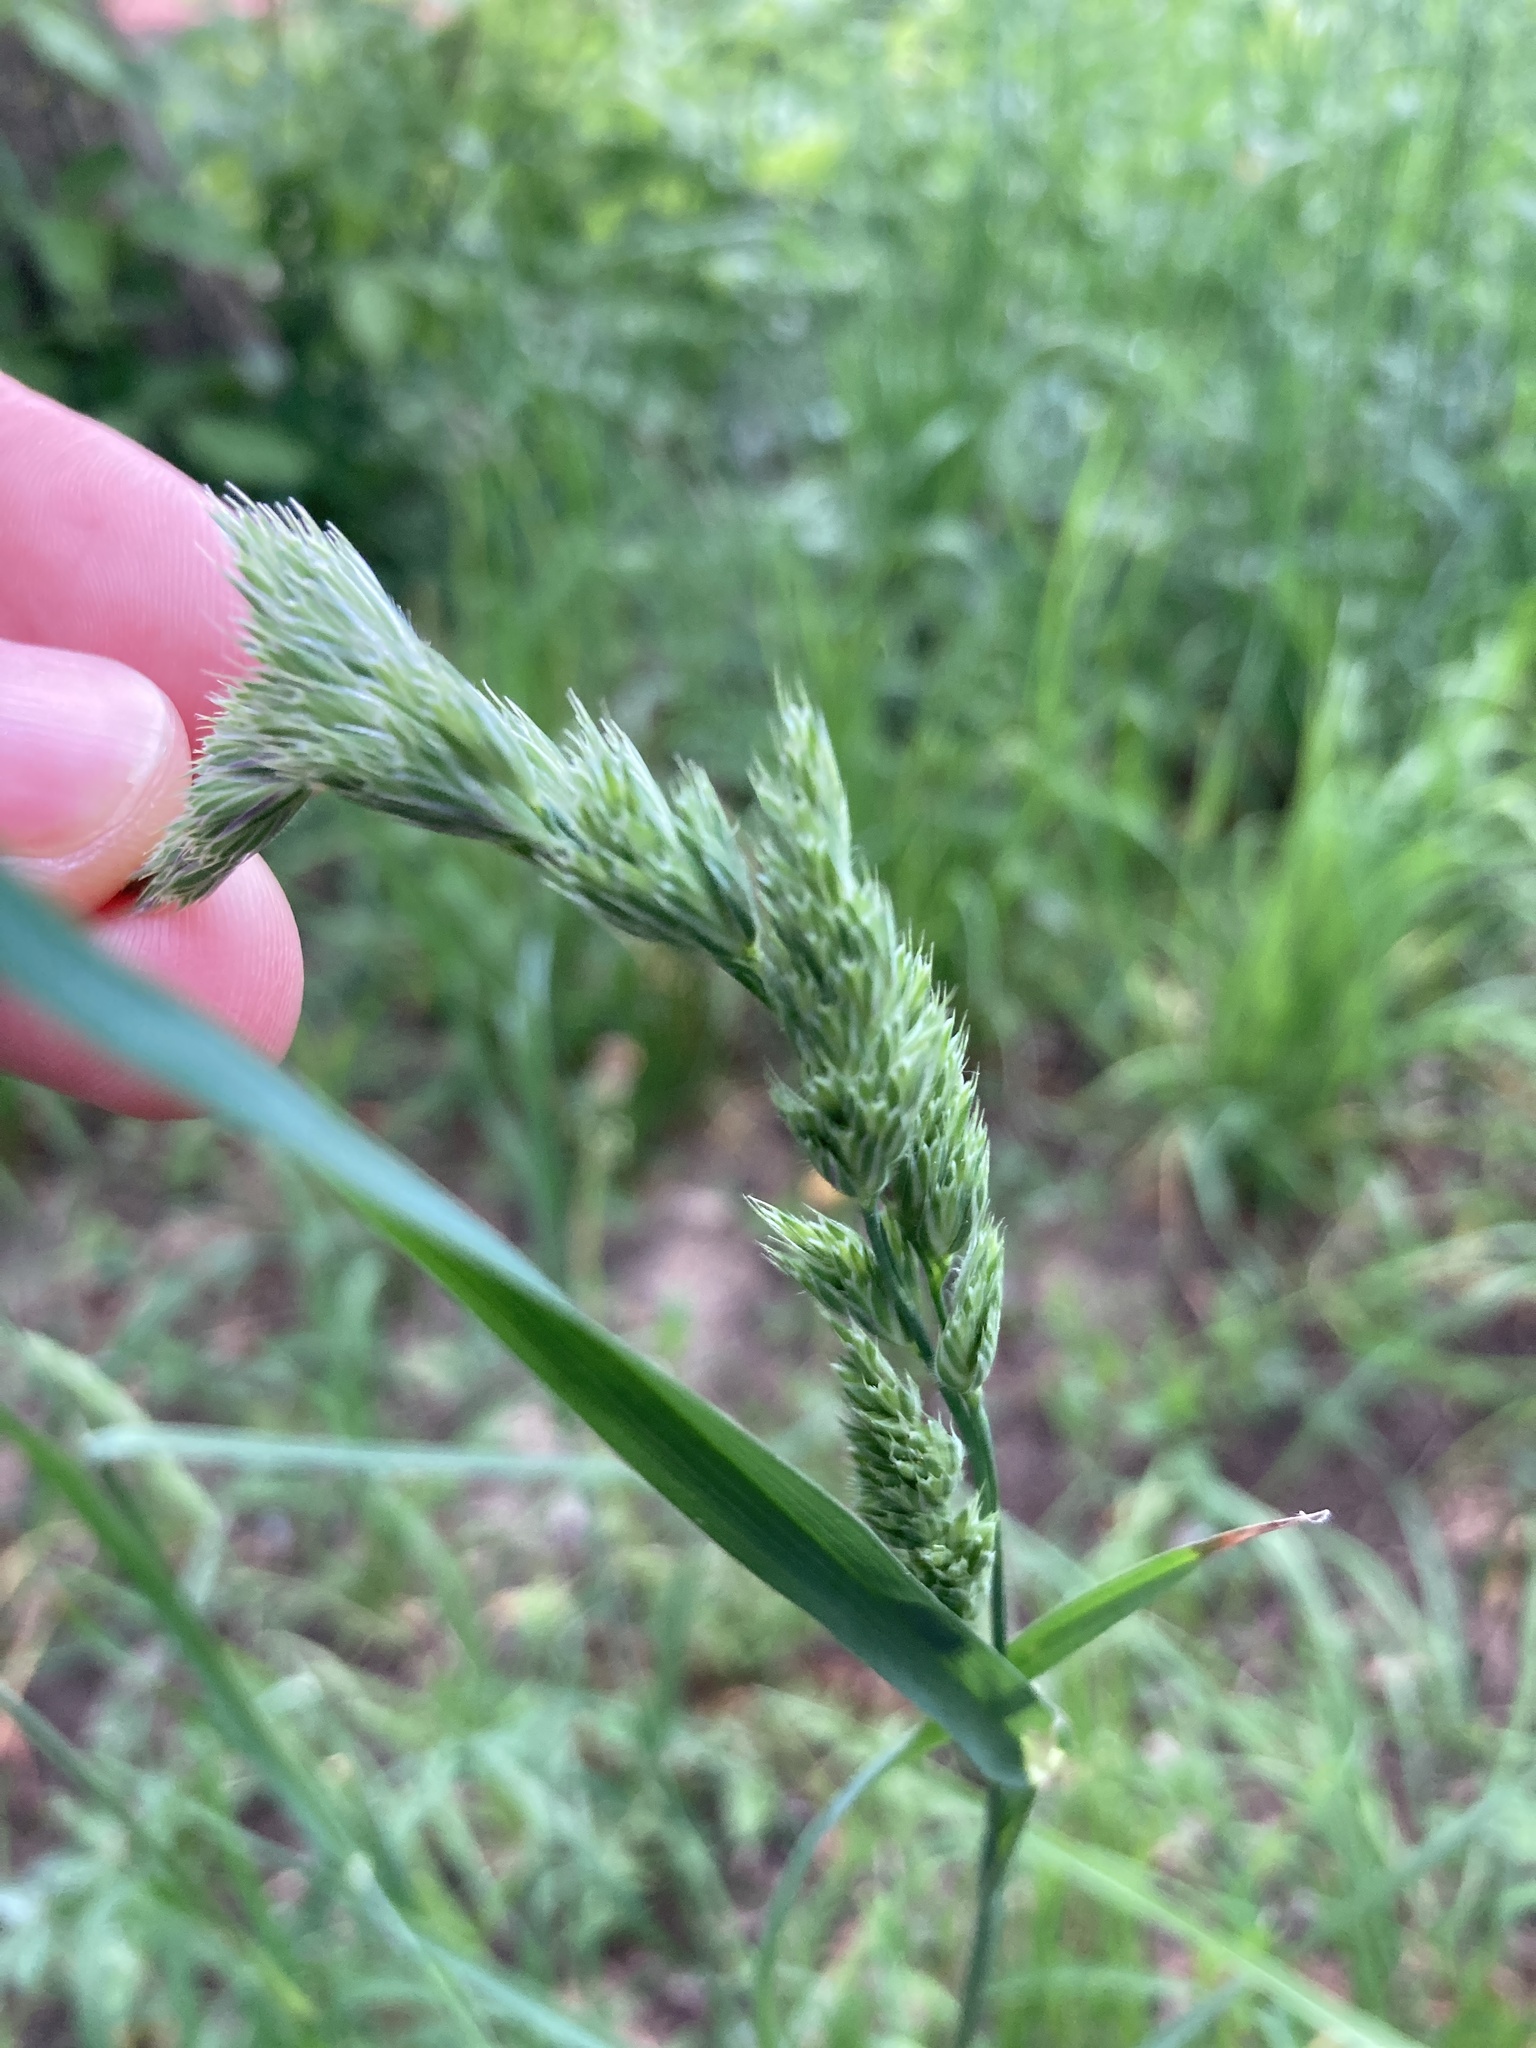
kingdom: Plantae
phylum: Tracheophyta
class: Liliopsida
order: Poales
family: Poaceae
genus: Dactylis
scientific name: Dactylis glomerata
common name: Orchardgrass
